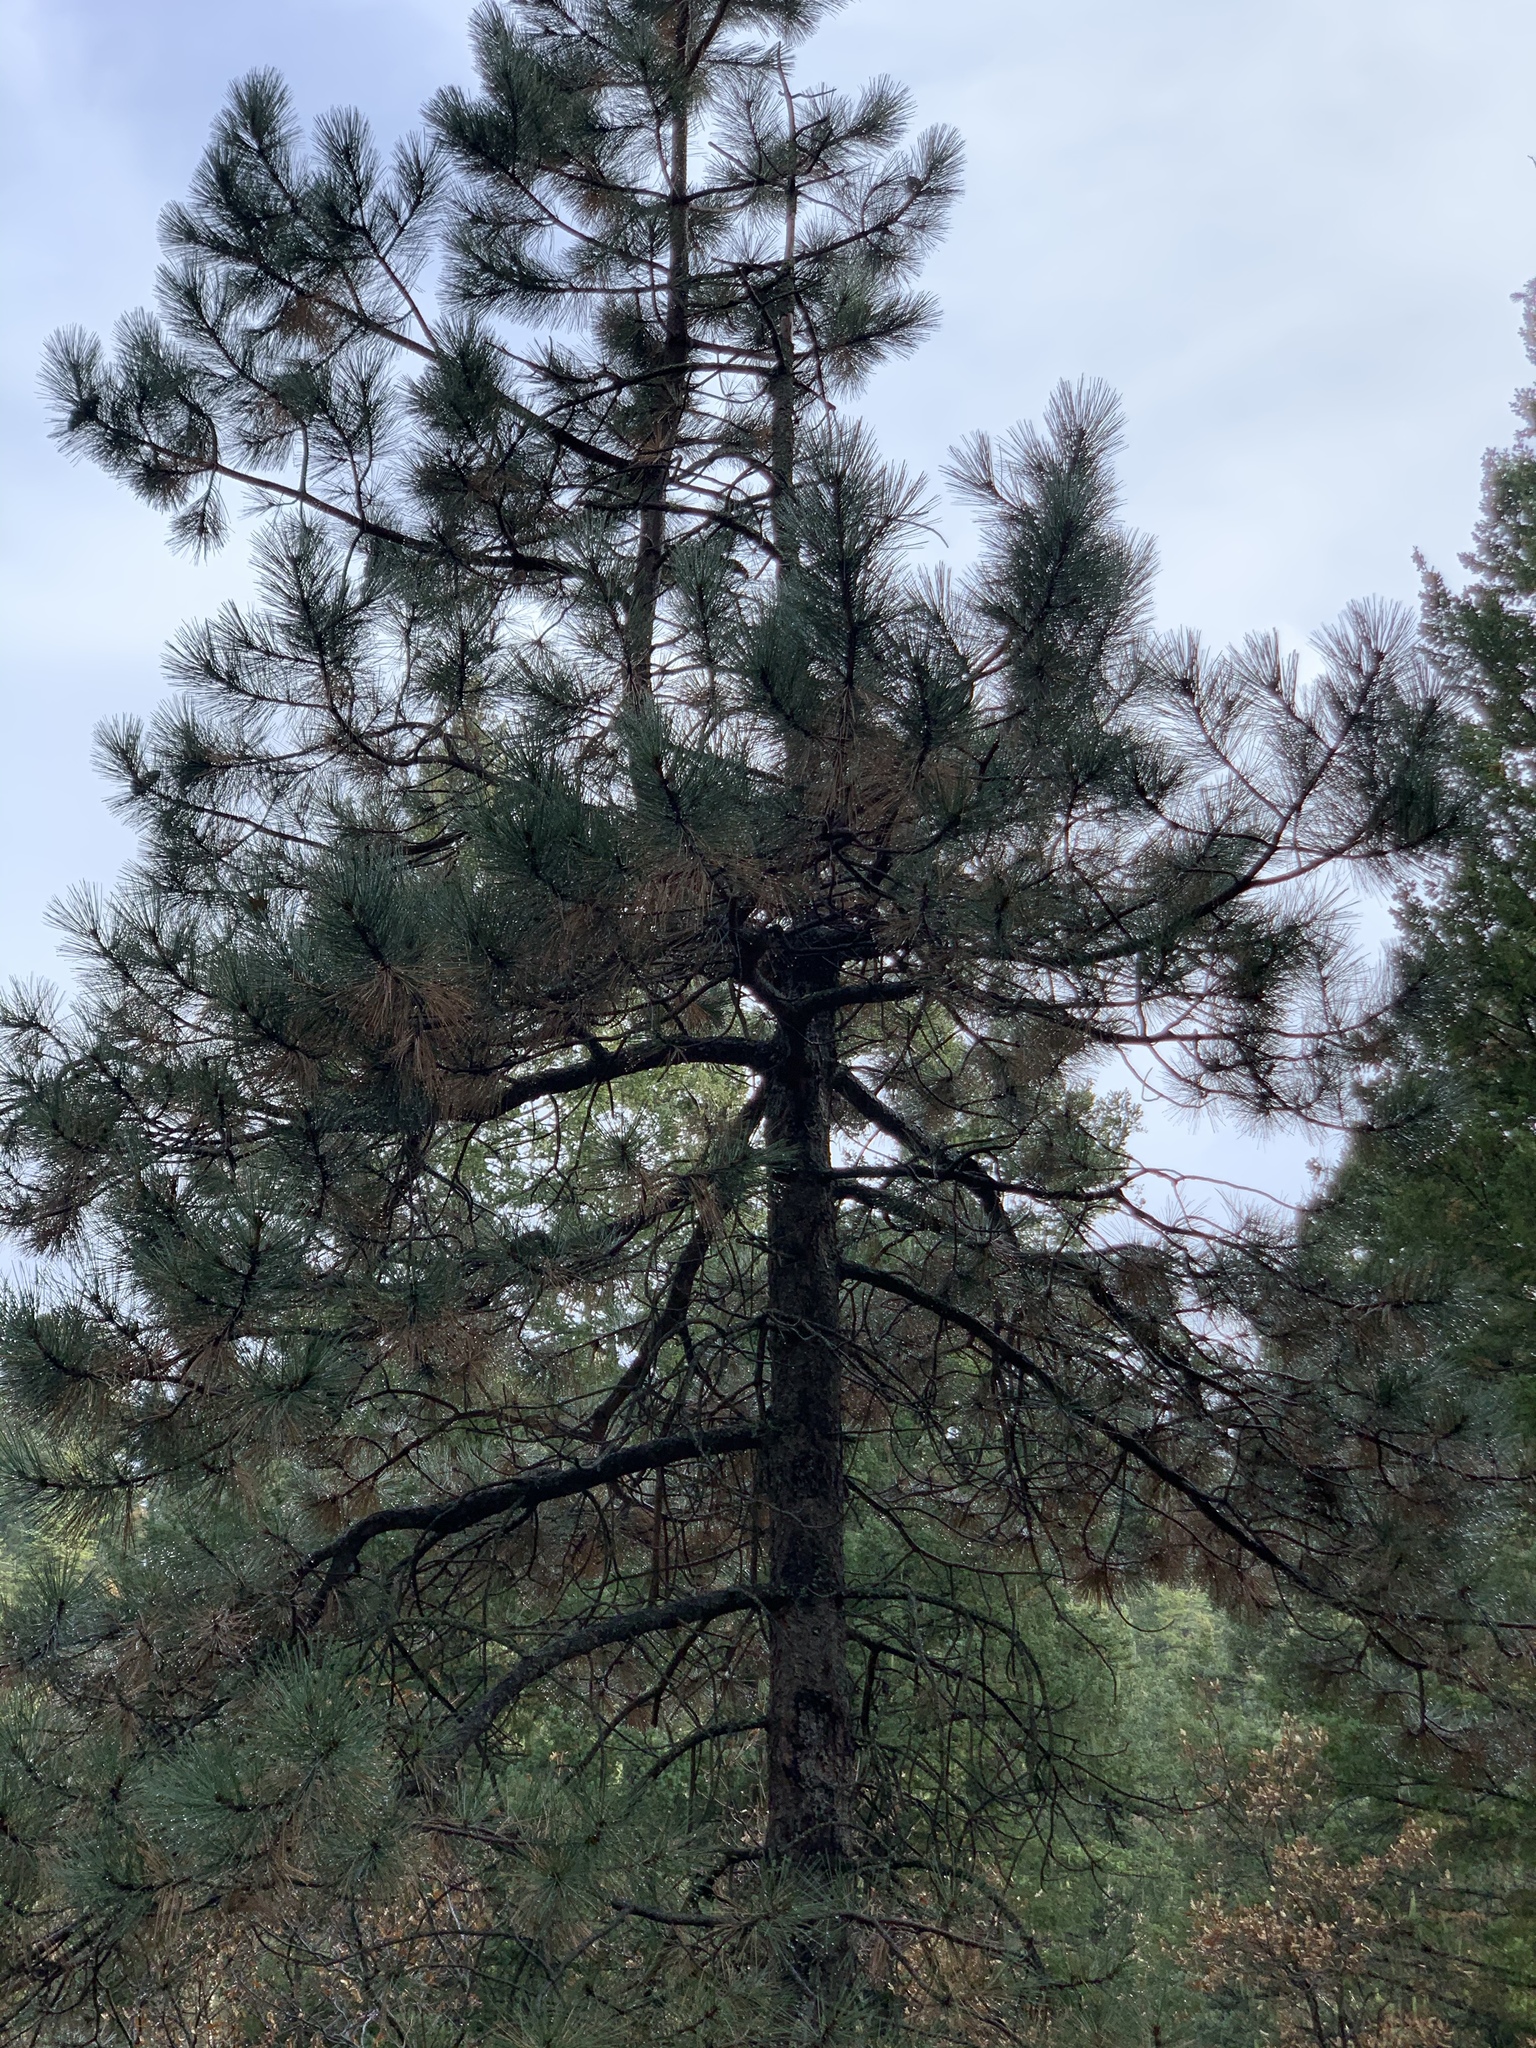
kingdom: Plantae
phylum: Tracheophyta
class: Pinopsida
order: Pinales
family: Pinaceae
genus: Pinus
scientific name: Pinus ponderosa
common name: Western yellow-pine
